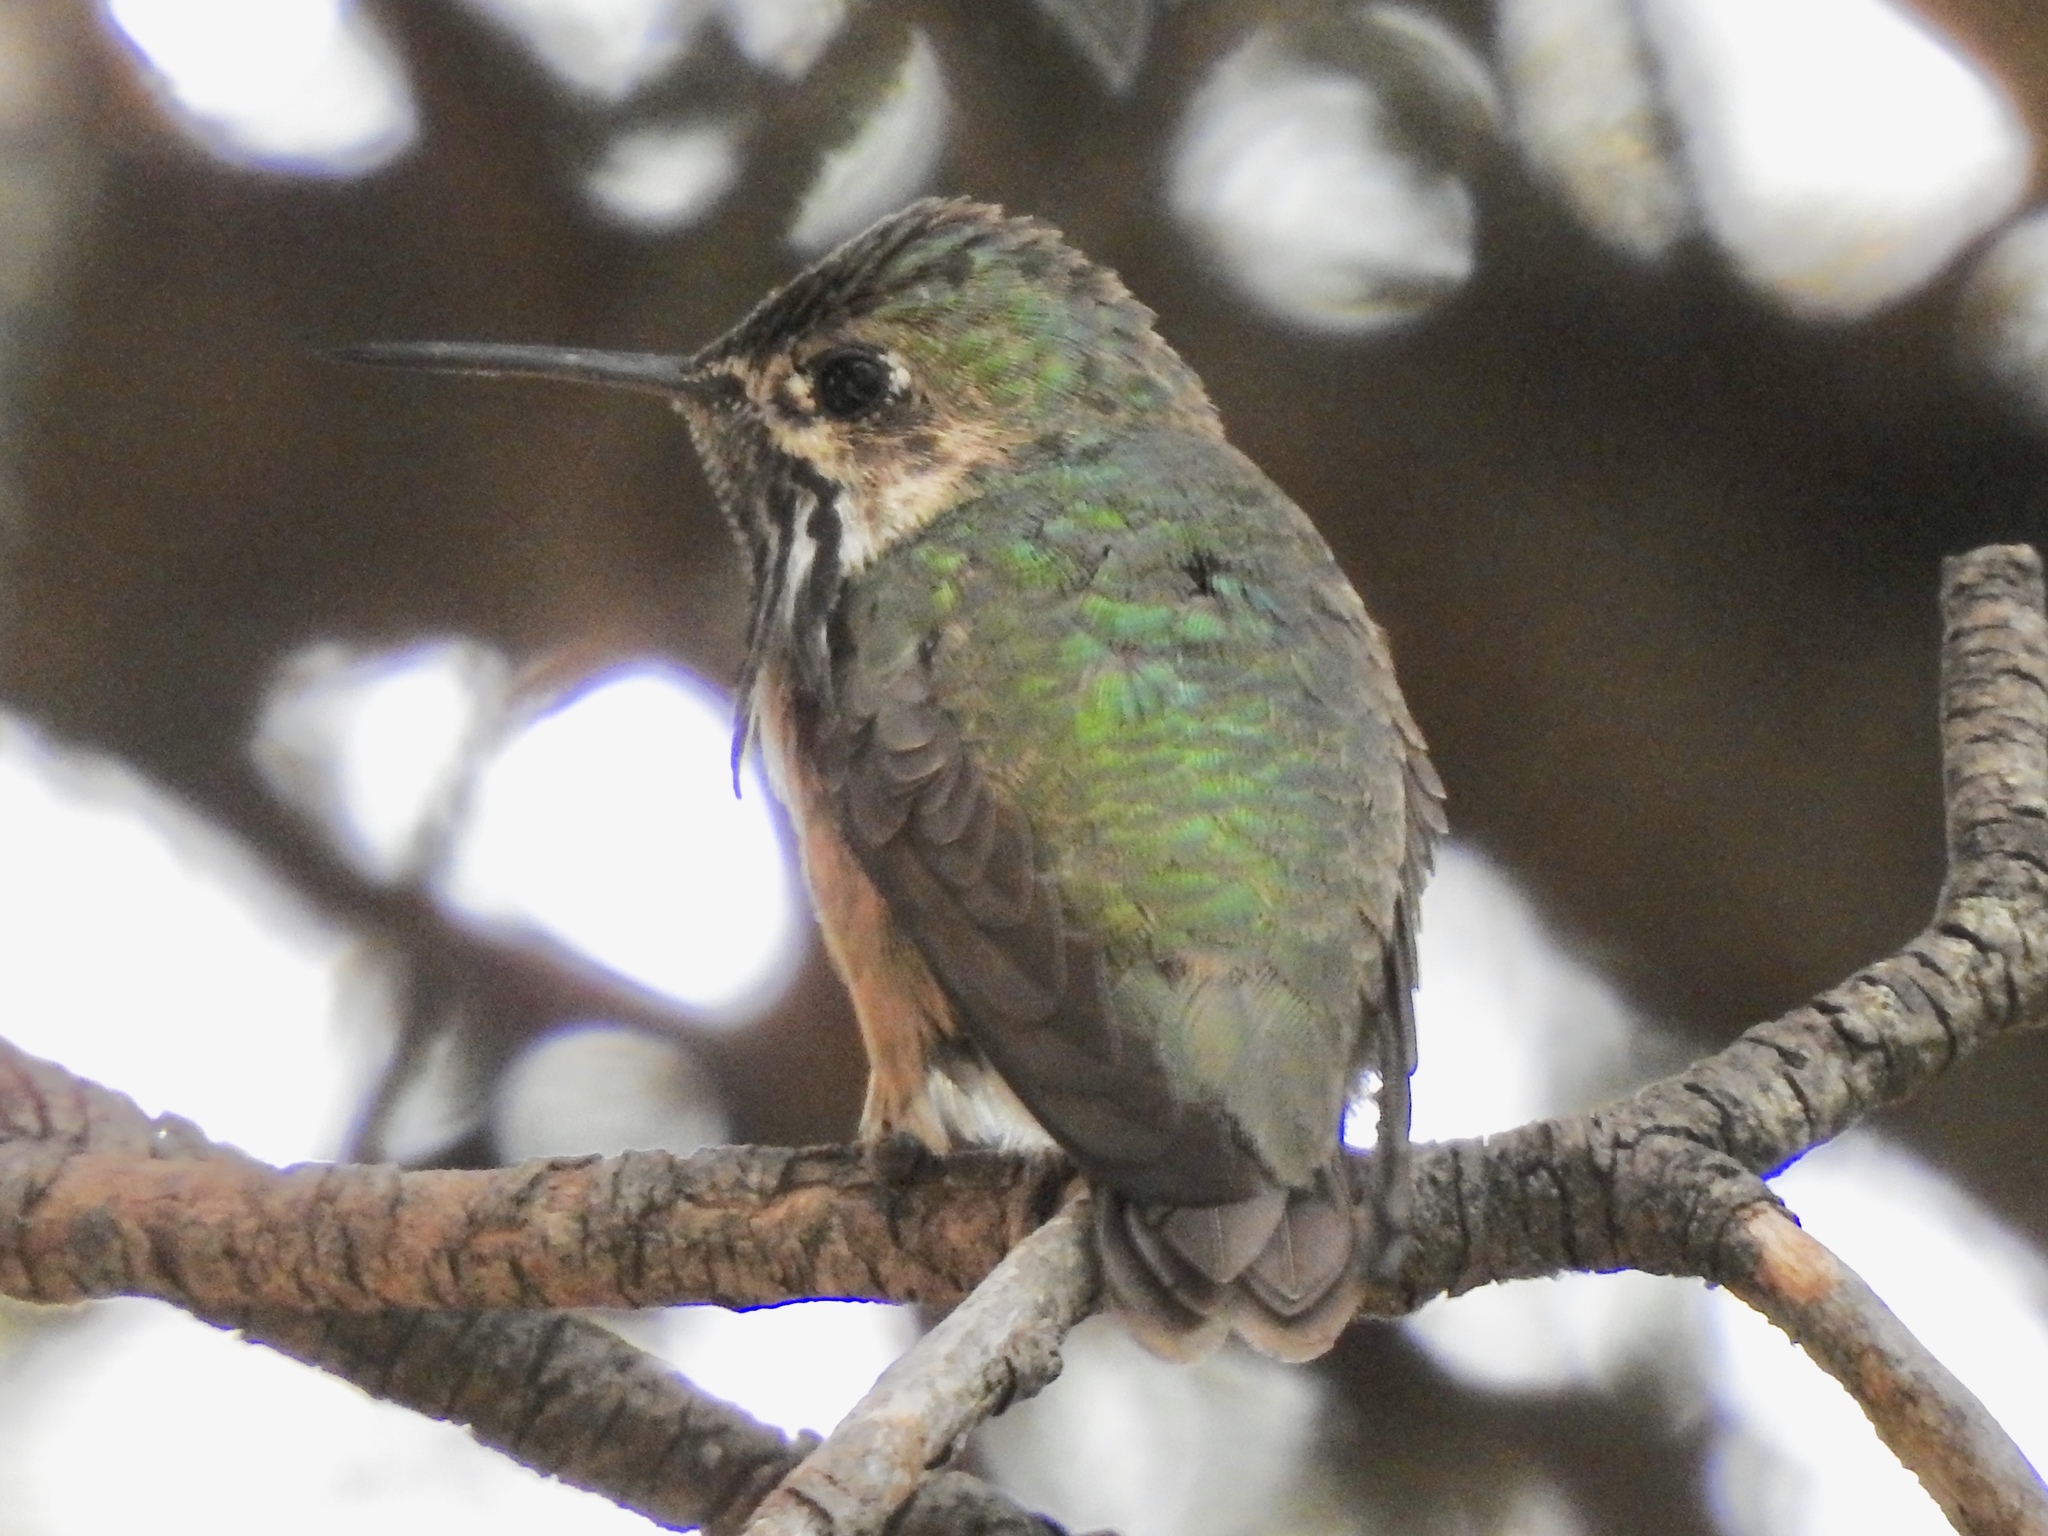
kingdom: Animalia
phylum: Chordata
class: Aves
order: Apodiformes
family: Trochilidae
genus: Selasphorus
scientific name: Selasphorus calliope
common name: Calliope hummingbird
